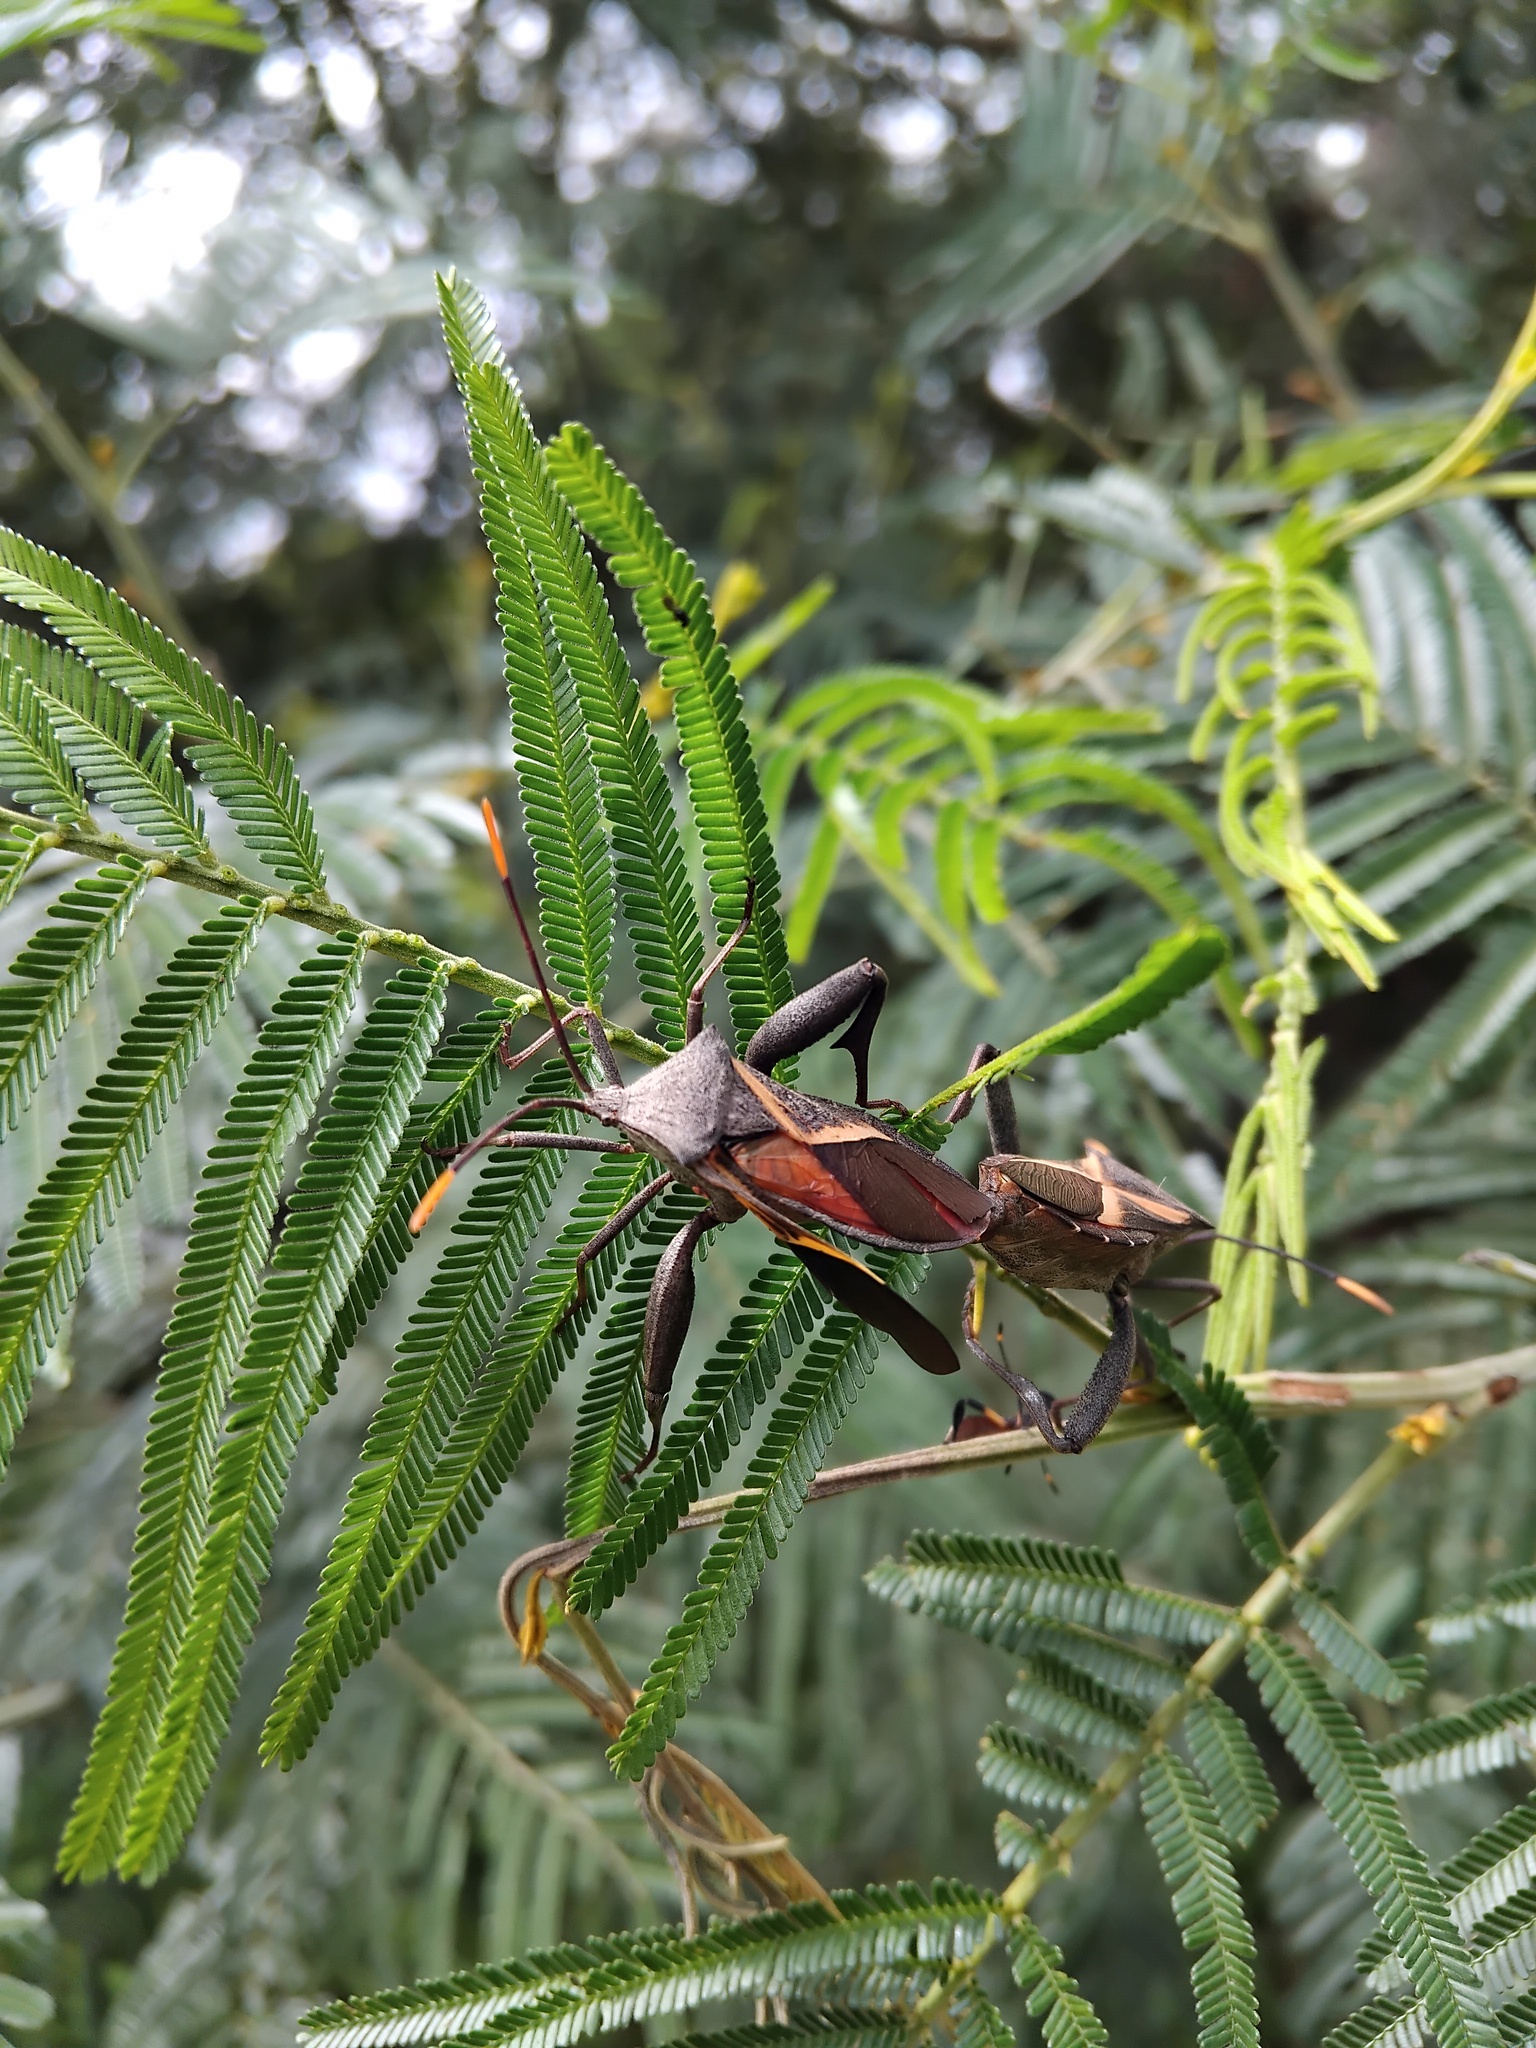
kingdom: Animalia
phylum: Arthropoda
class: Insecta
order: Hemiptera
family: Coreidae
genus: Mictis
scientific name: Mictis profana
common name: Crusader bug
